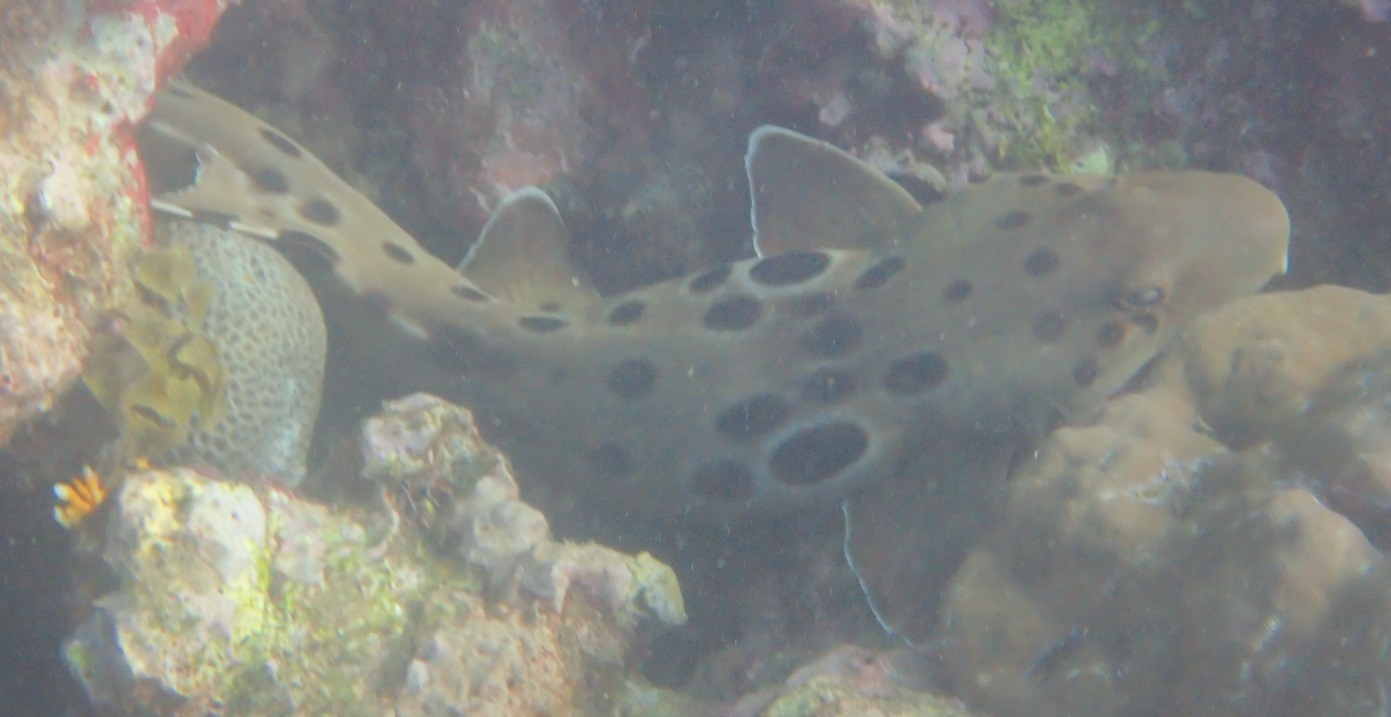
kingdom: Animalia
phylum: Chordata
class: Elasmobranchii
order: Orectolobiformes
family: Hemiscylliidae
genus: Hemiscyllium
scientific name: Hemiscyllium hallstromi
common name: Papuan epaulette shark
